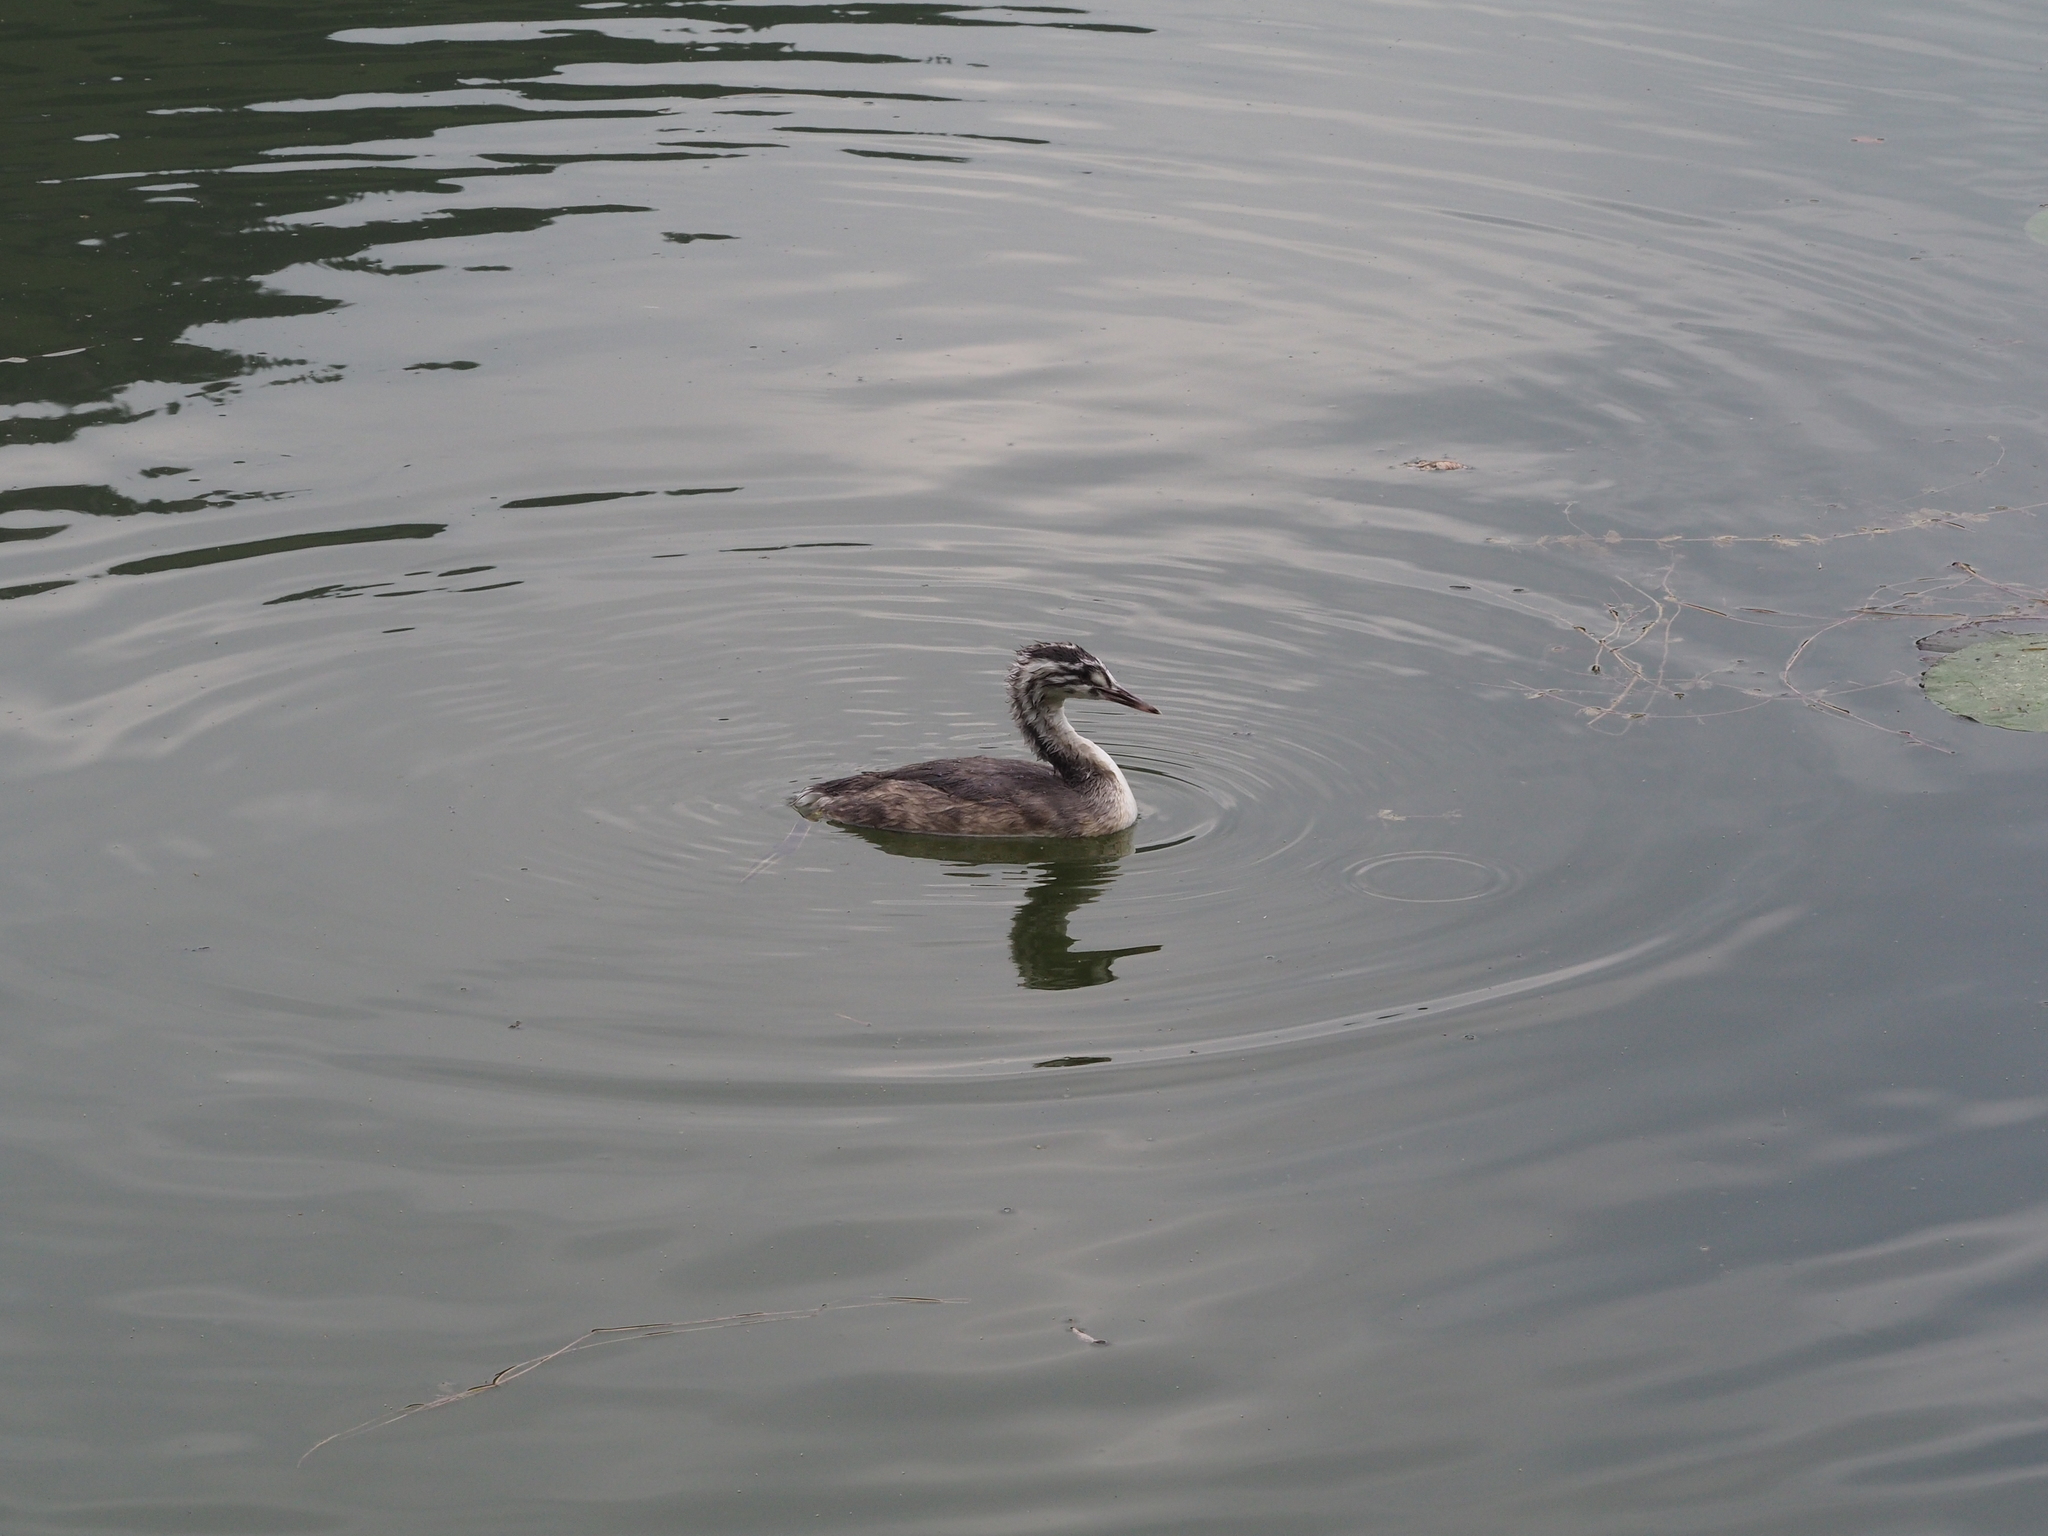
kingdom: Animalia
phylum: Chordata
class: Aves
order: Podicipediformes
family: Podicipedidae
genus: Podiceps
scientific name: Podiceps cristatus
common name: Great crested grebe
